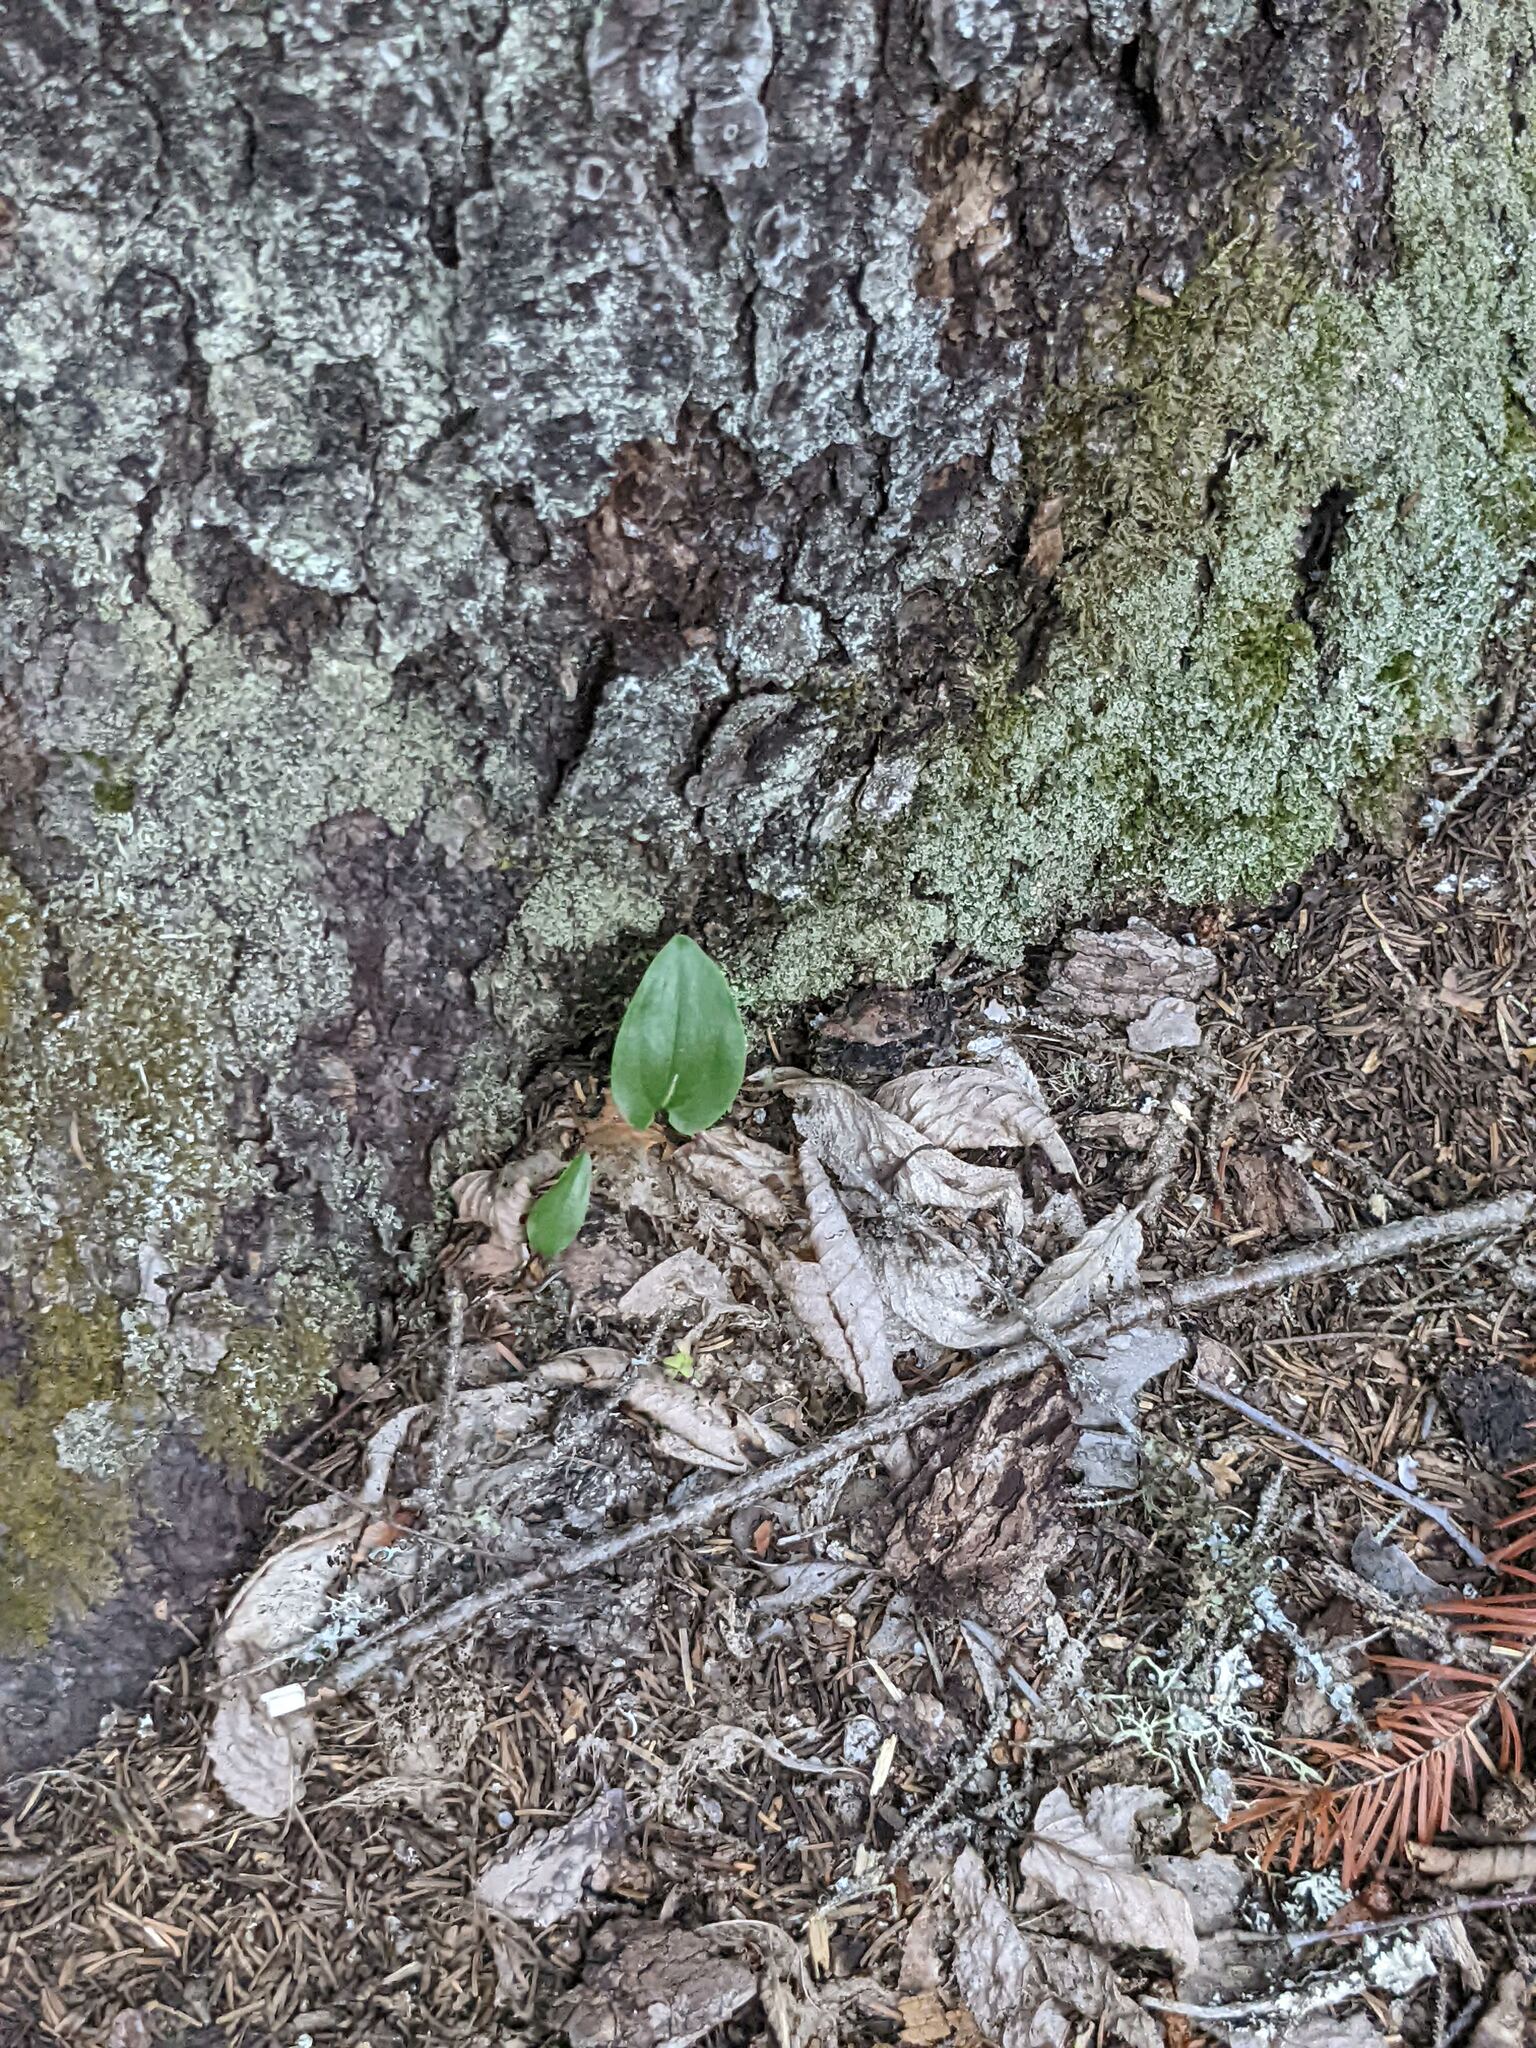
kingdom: Plantae
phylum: Tracheophyta
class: Liliopsida
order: Asparagales
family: Asparagaceae
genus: Maianthemum
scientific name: Maianthemum canadense
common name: False lily-of-the-valley
